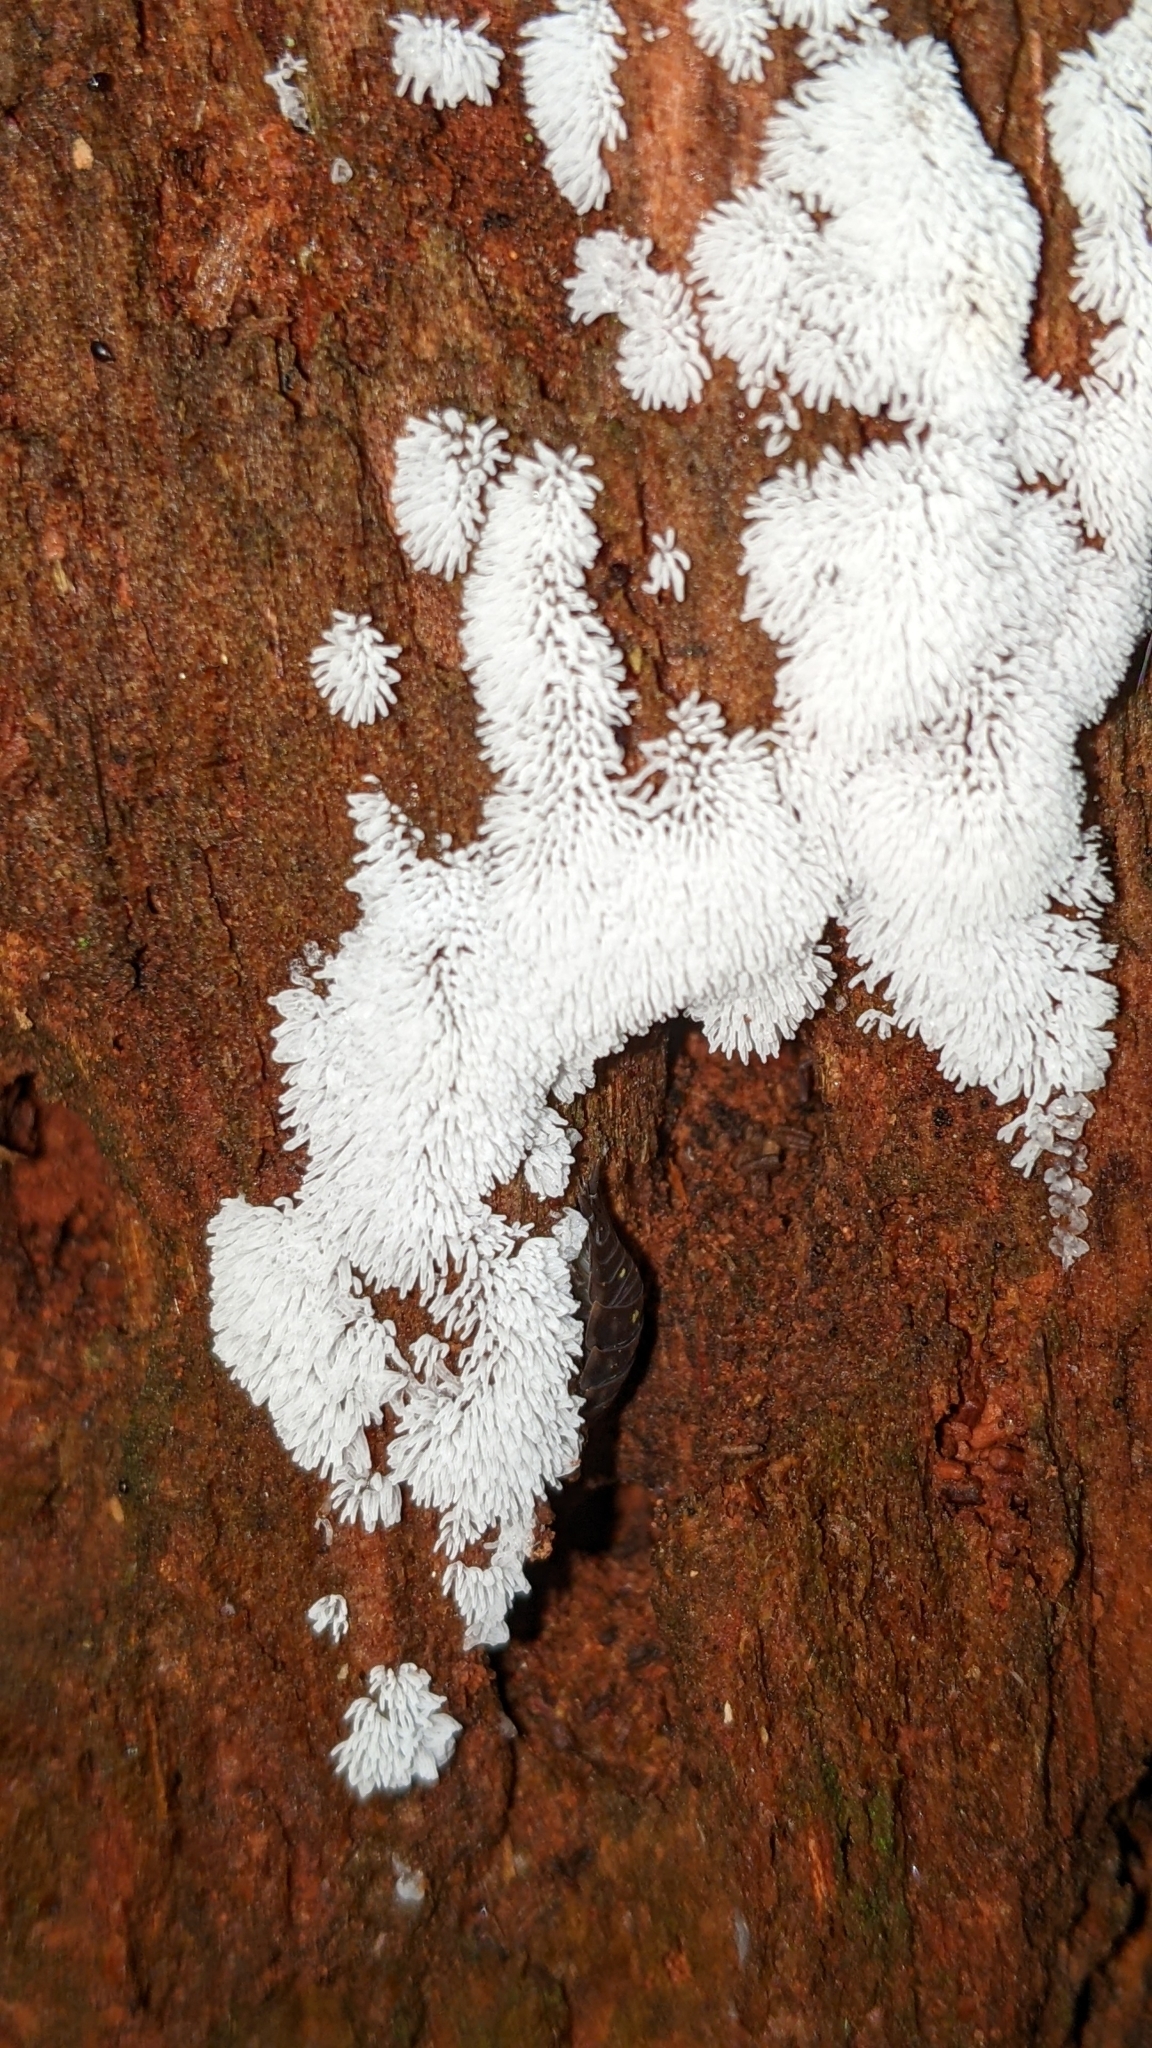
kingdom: Protozoa
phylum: Mycetozoa
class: Protosteliomycetes
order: Ceratiomyxales
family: Ceratiomyxaceae
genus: Ceratiomyxa
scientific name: Ceratiomyxa fruticulosa
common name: Honeycomb coral slime mold
